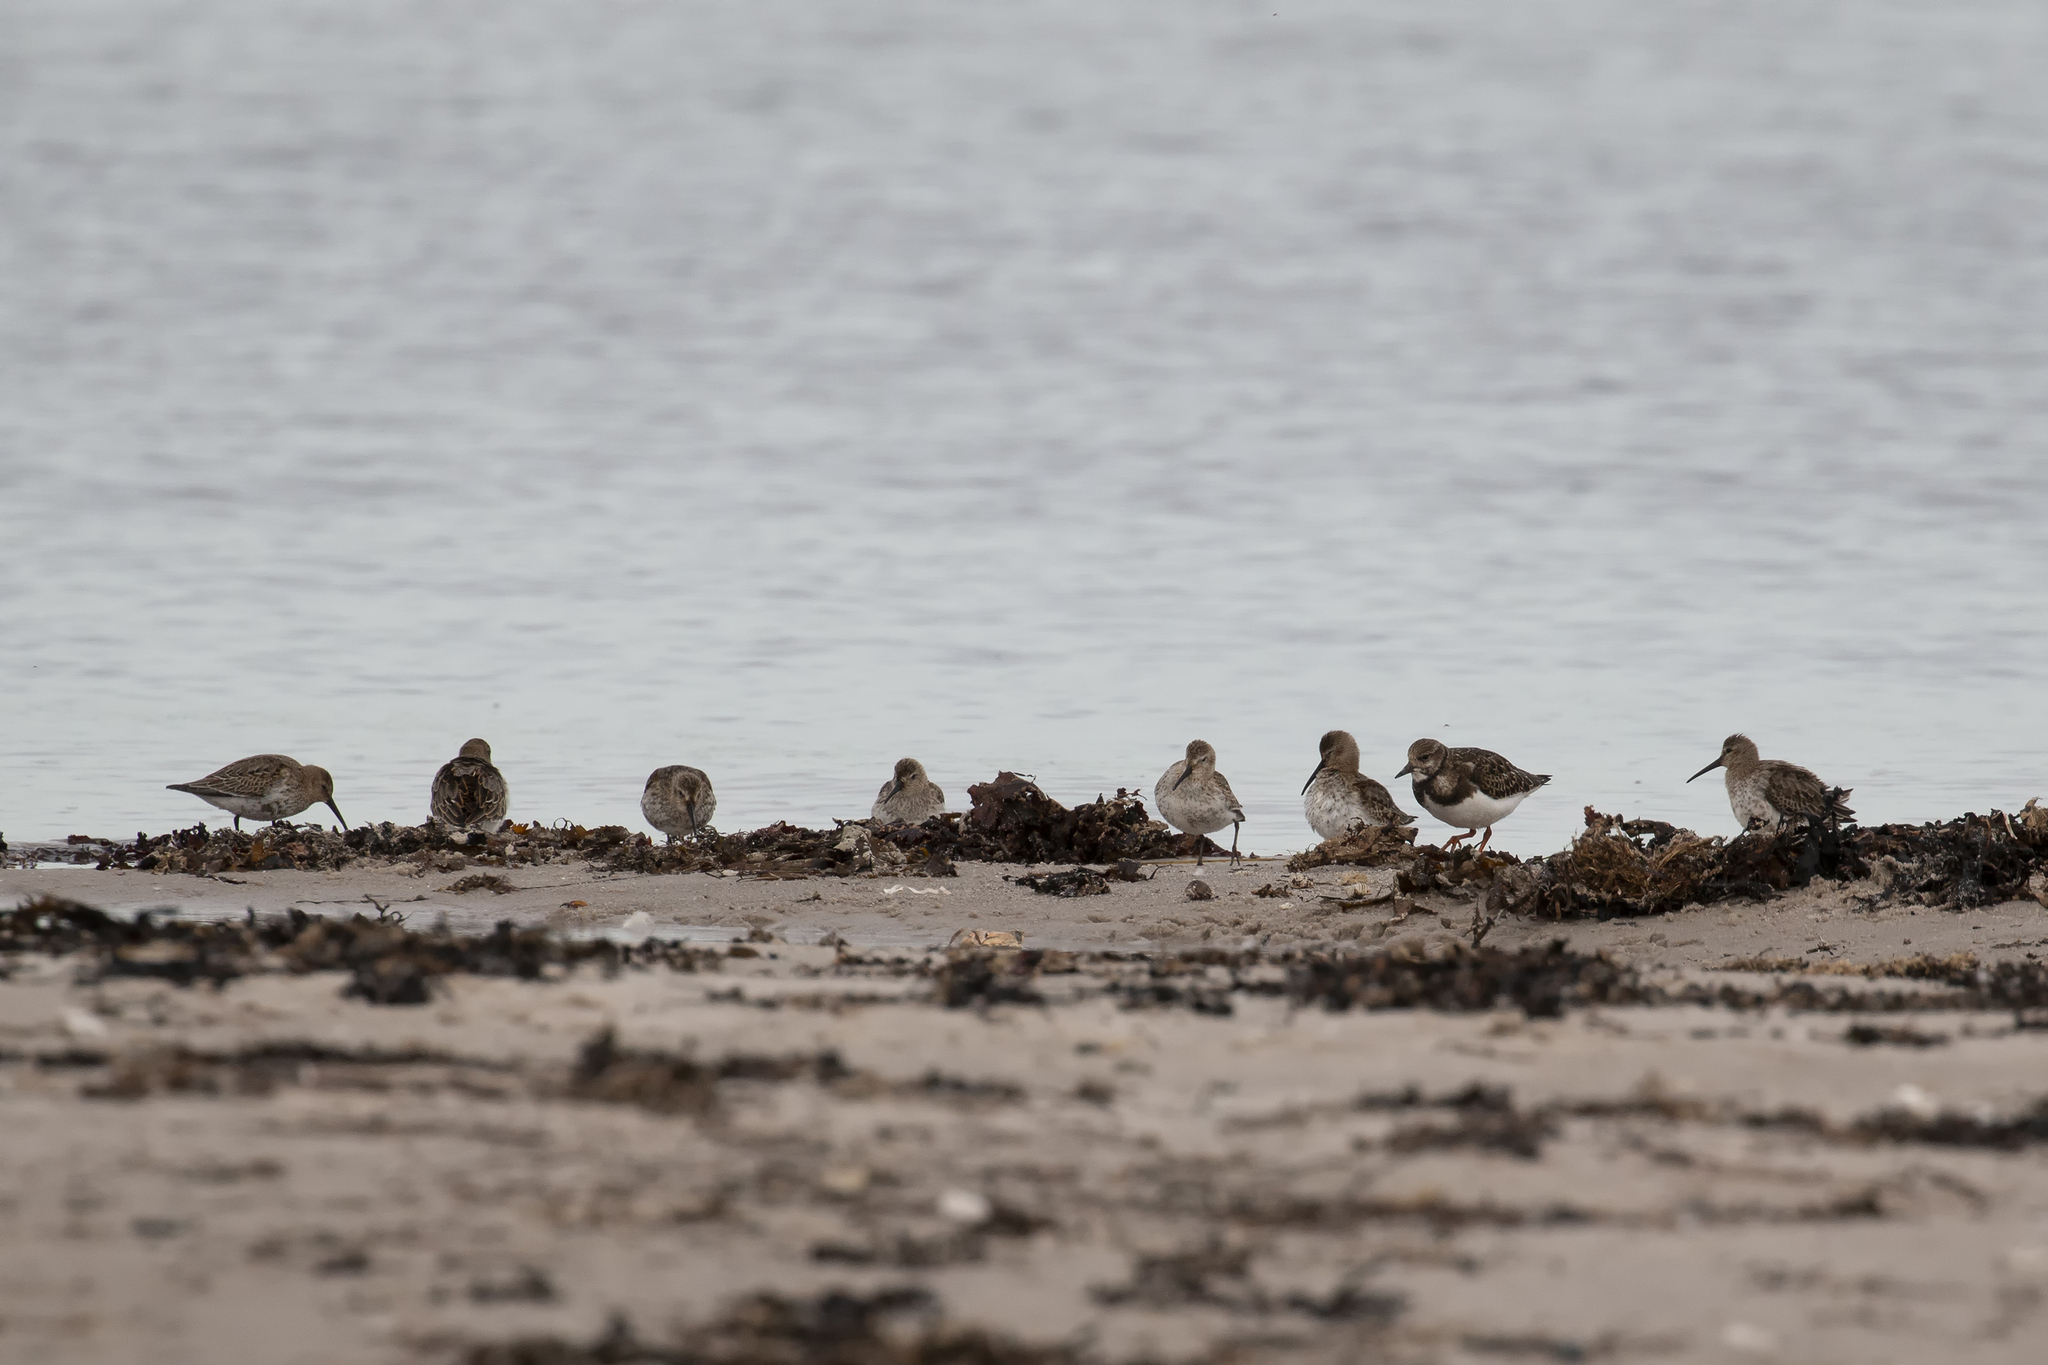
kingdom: Animalia
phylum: Chordata
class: Aves
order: Charadriiformes
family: Scolopacidae
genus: Arenaria
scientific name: Arenaria interpres
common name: Ruddy turnstone
